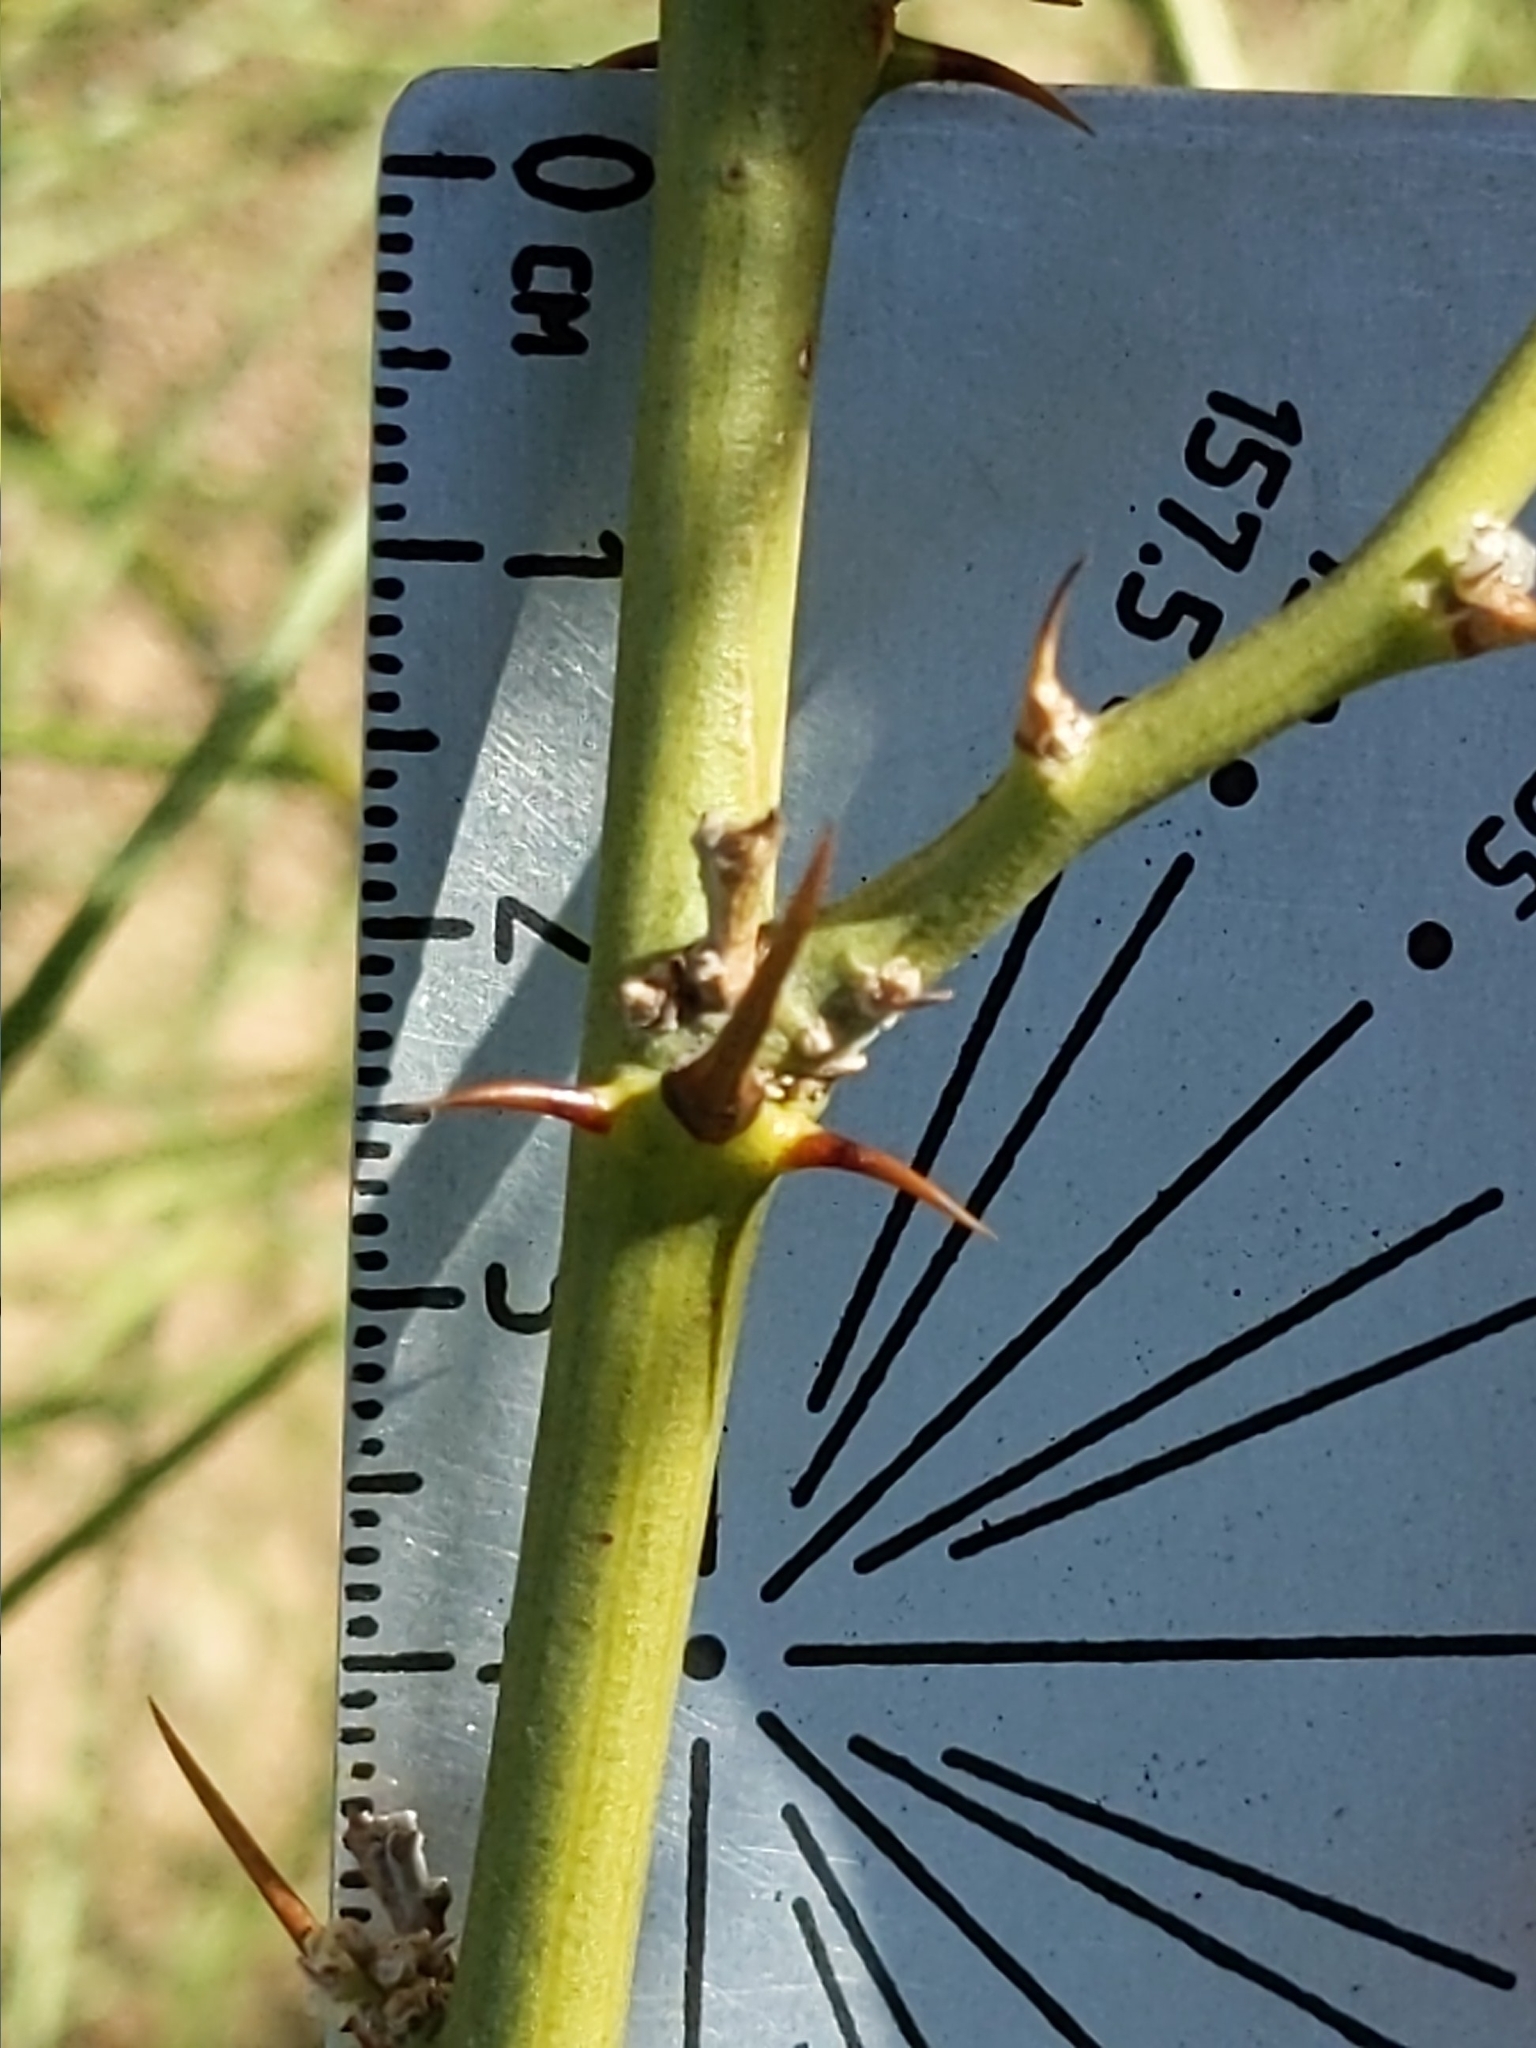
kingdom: Plantae
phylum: Tracheophyta
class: Magnoliopsida
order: Fabales
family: Fabaceae
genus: Parkinsonia
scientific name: Parkinsonia aculeata
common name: Jerusalem thorn
